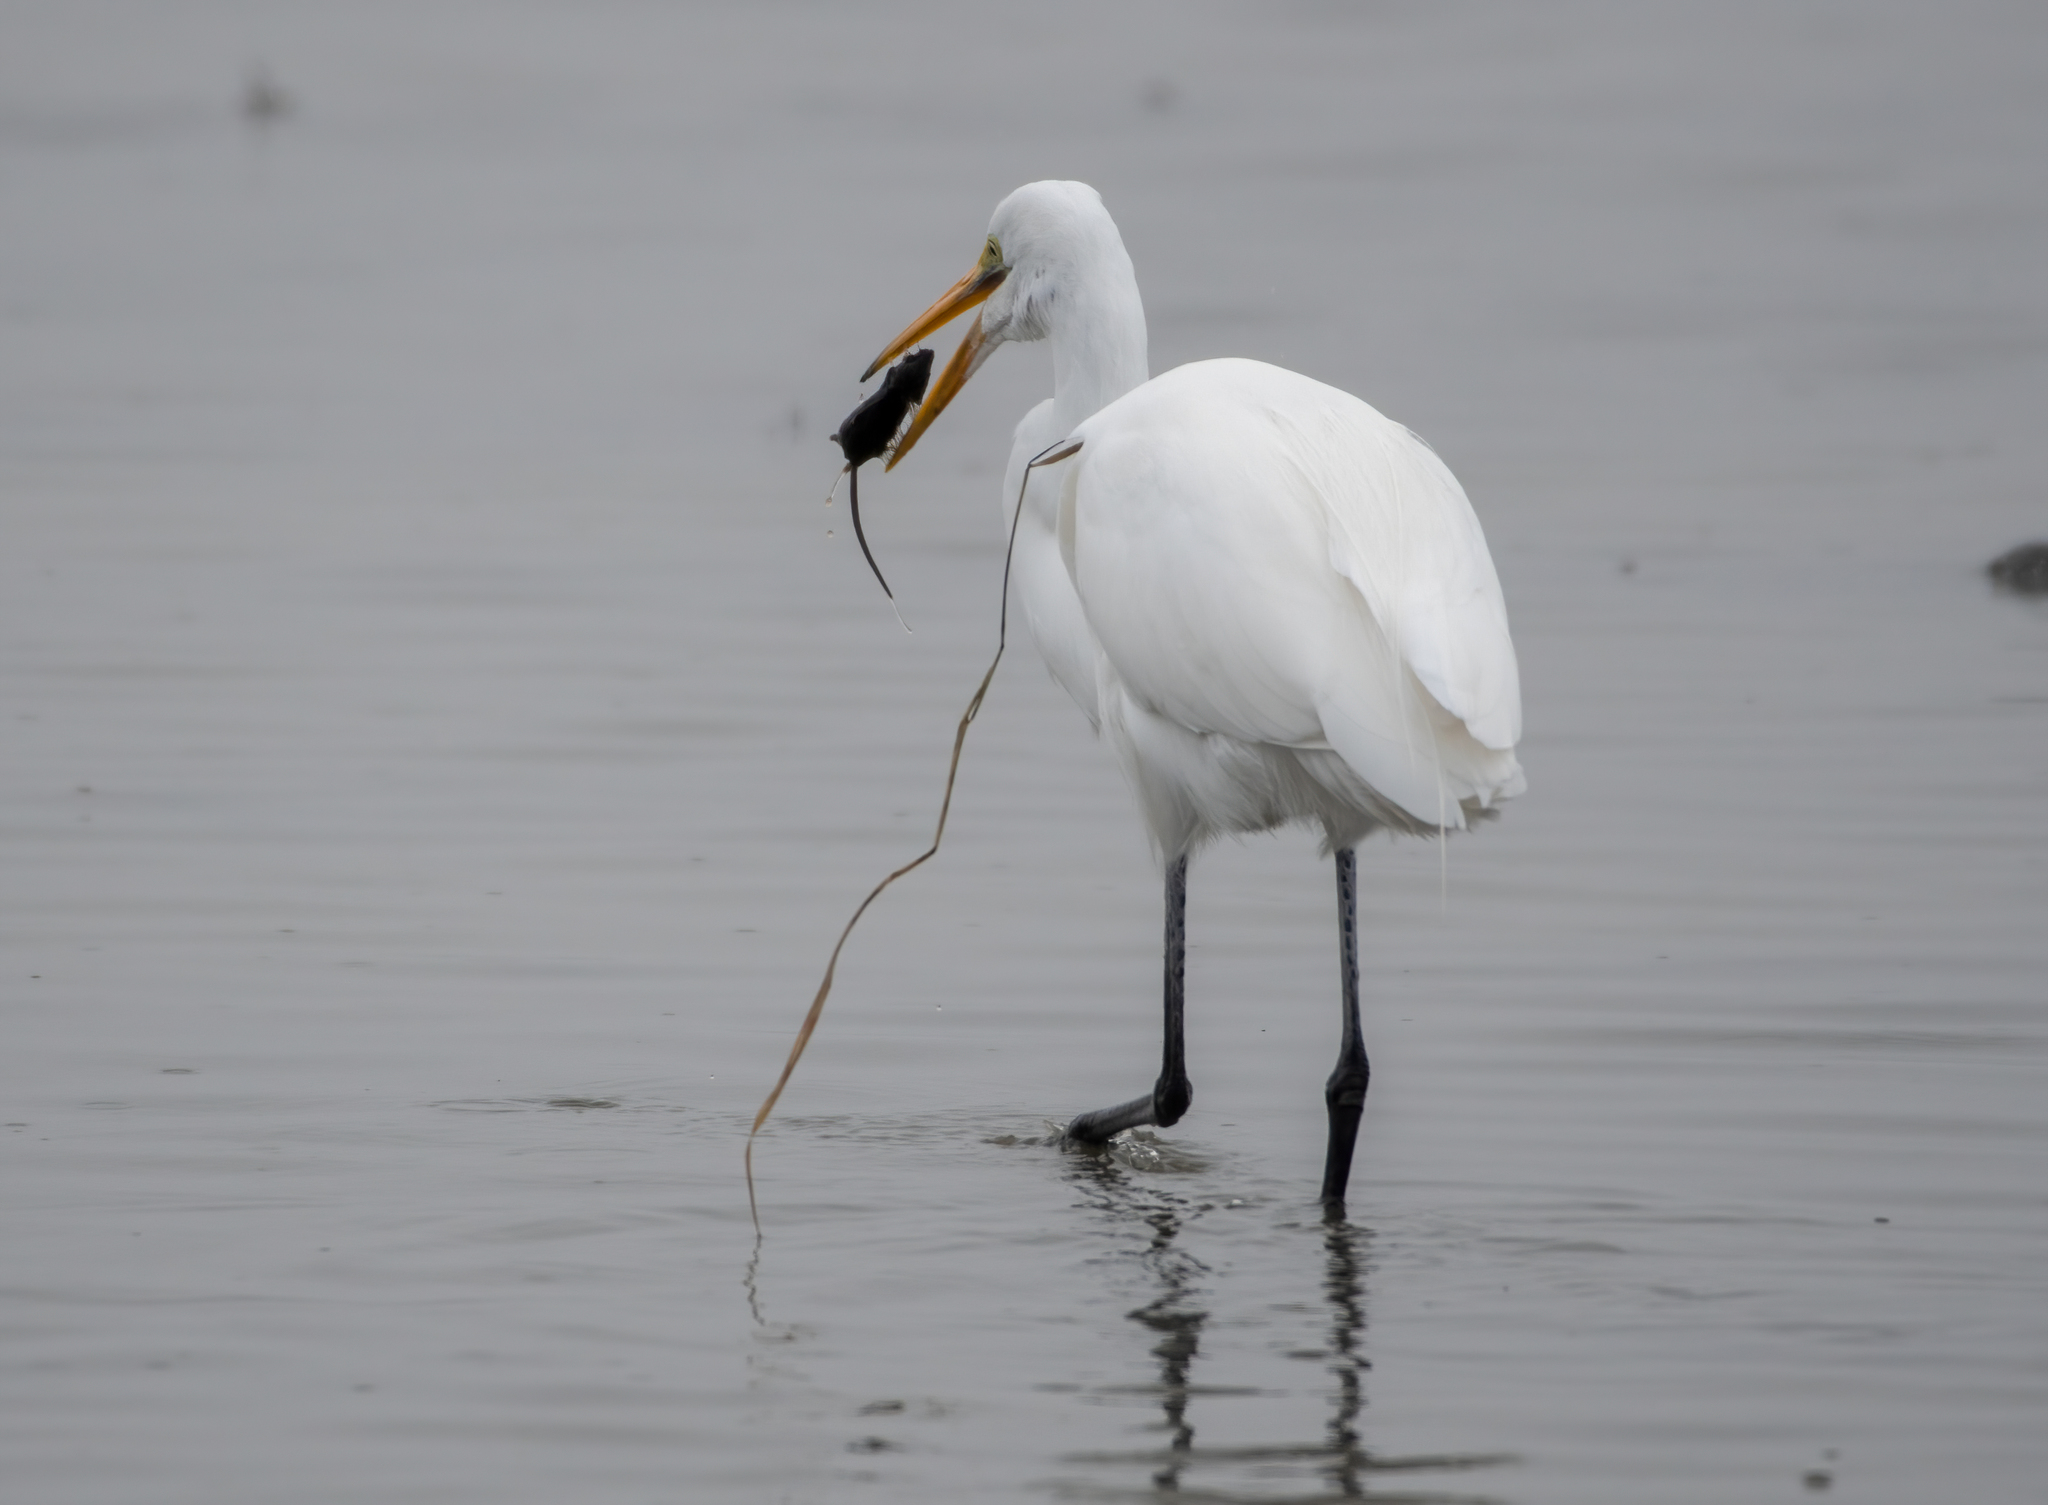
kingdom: Animalia
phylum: Chordata
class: Aves
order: Pelecaniformes
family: Ardeidae
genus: Ardea
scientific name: Ardea alba
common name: Great egret
